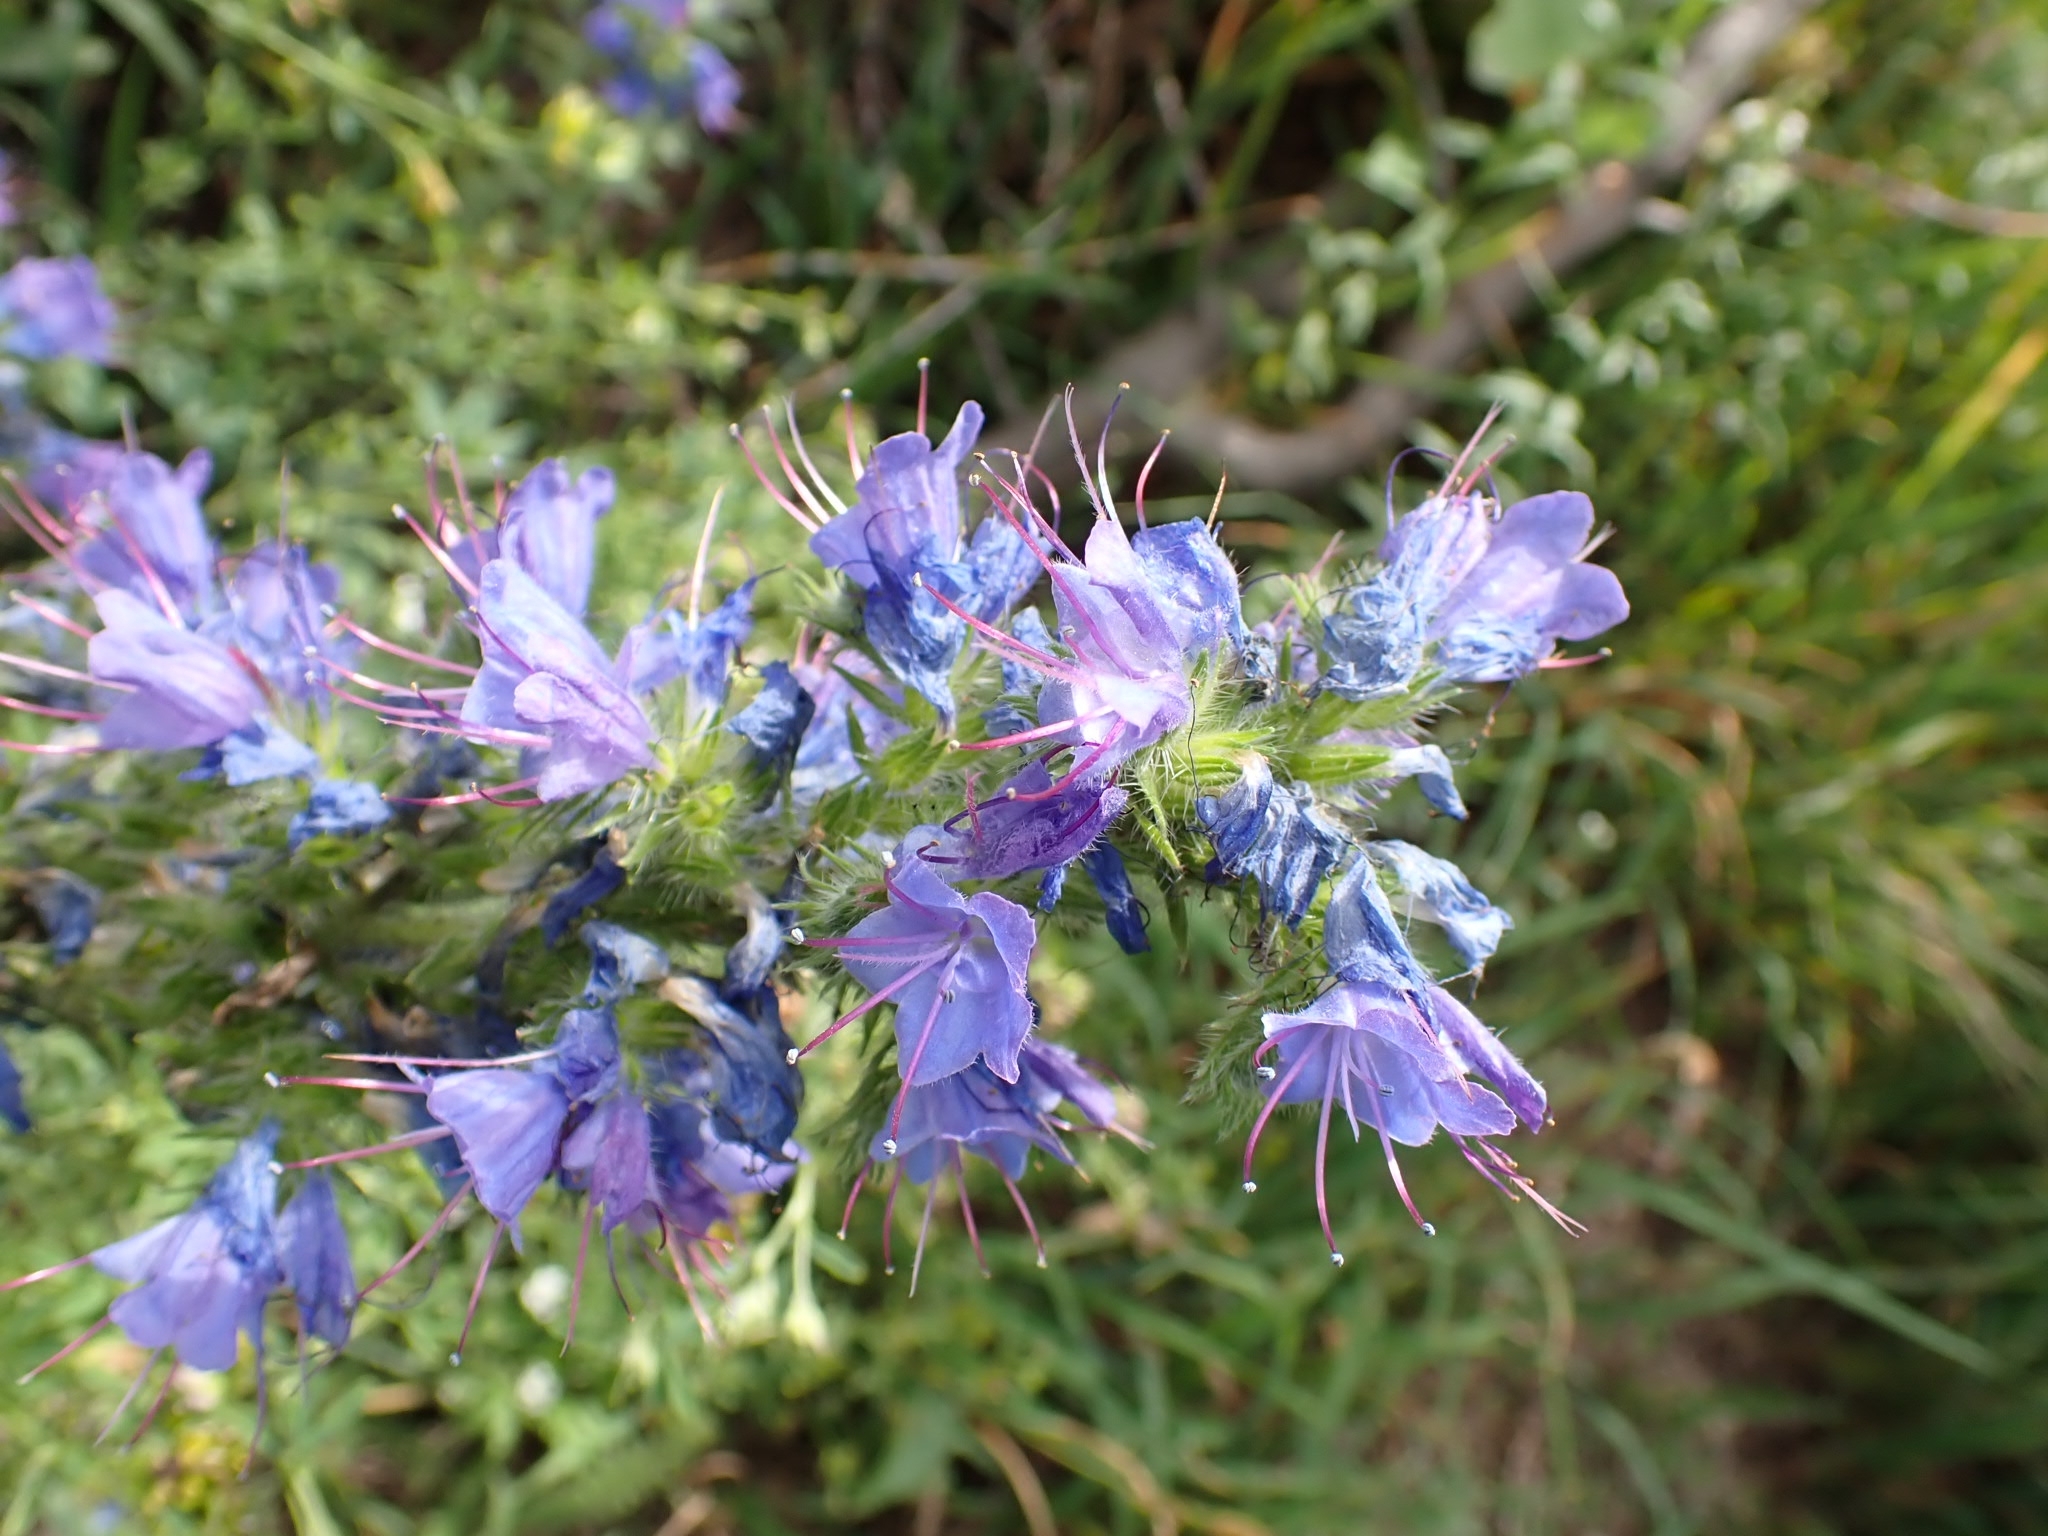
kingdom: Plantae
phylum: Tracheophyta
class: Magnoliopsida
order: Boraginales
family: Boraginaceae
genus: Echium
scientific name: Echium vulgare
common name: Common viper's bugloss
